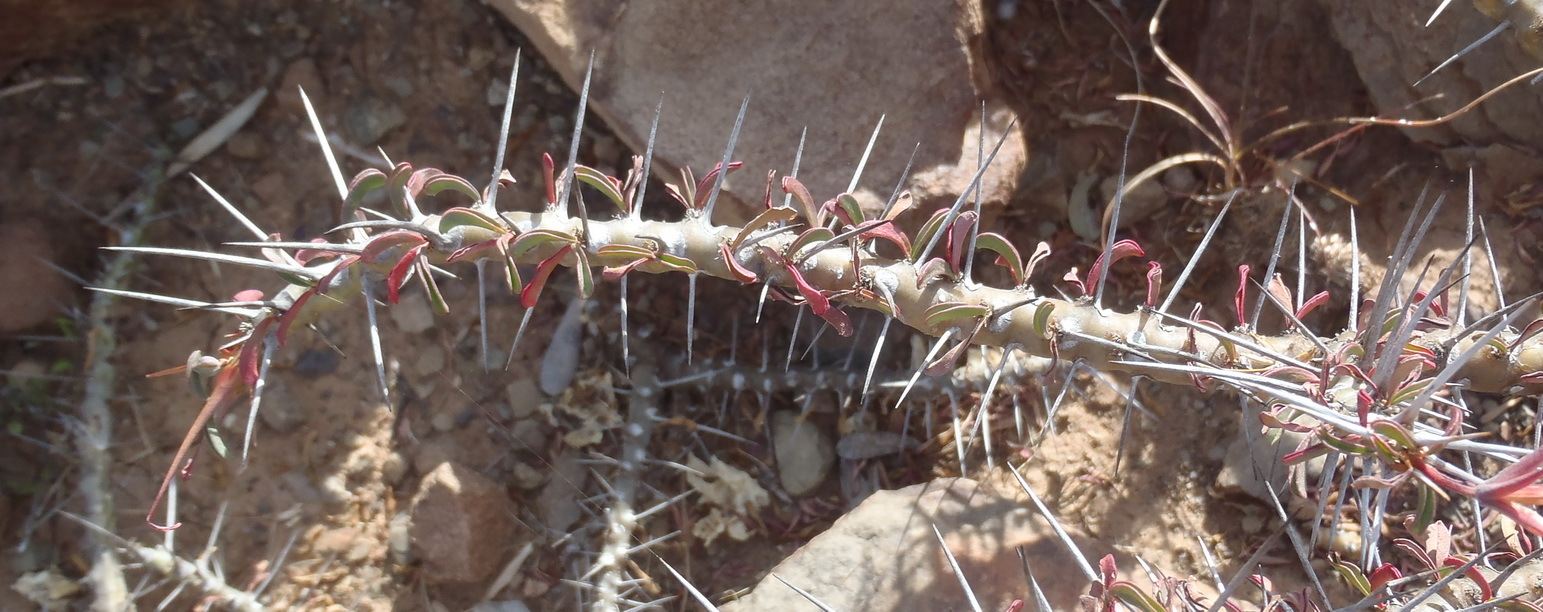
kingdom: Plantae
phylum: Tracheophyta
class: Magnoliopsida
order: Geraniales
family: Geraniaceae
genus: Monsonia
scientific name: Monsonia camdeboensis
